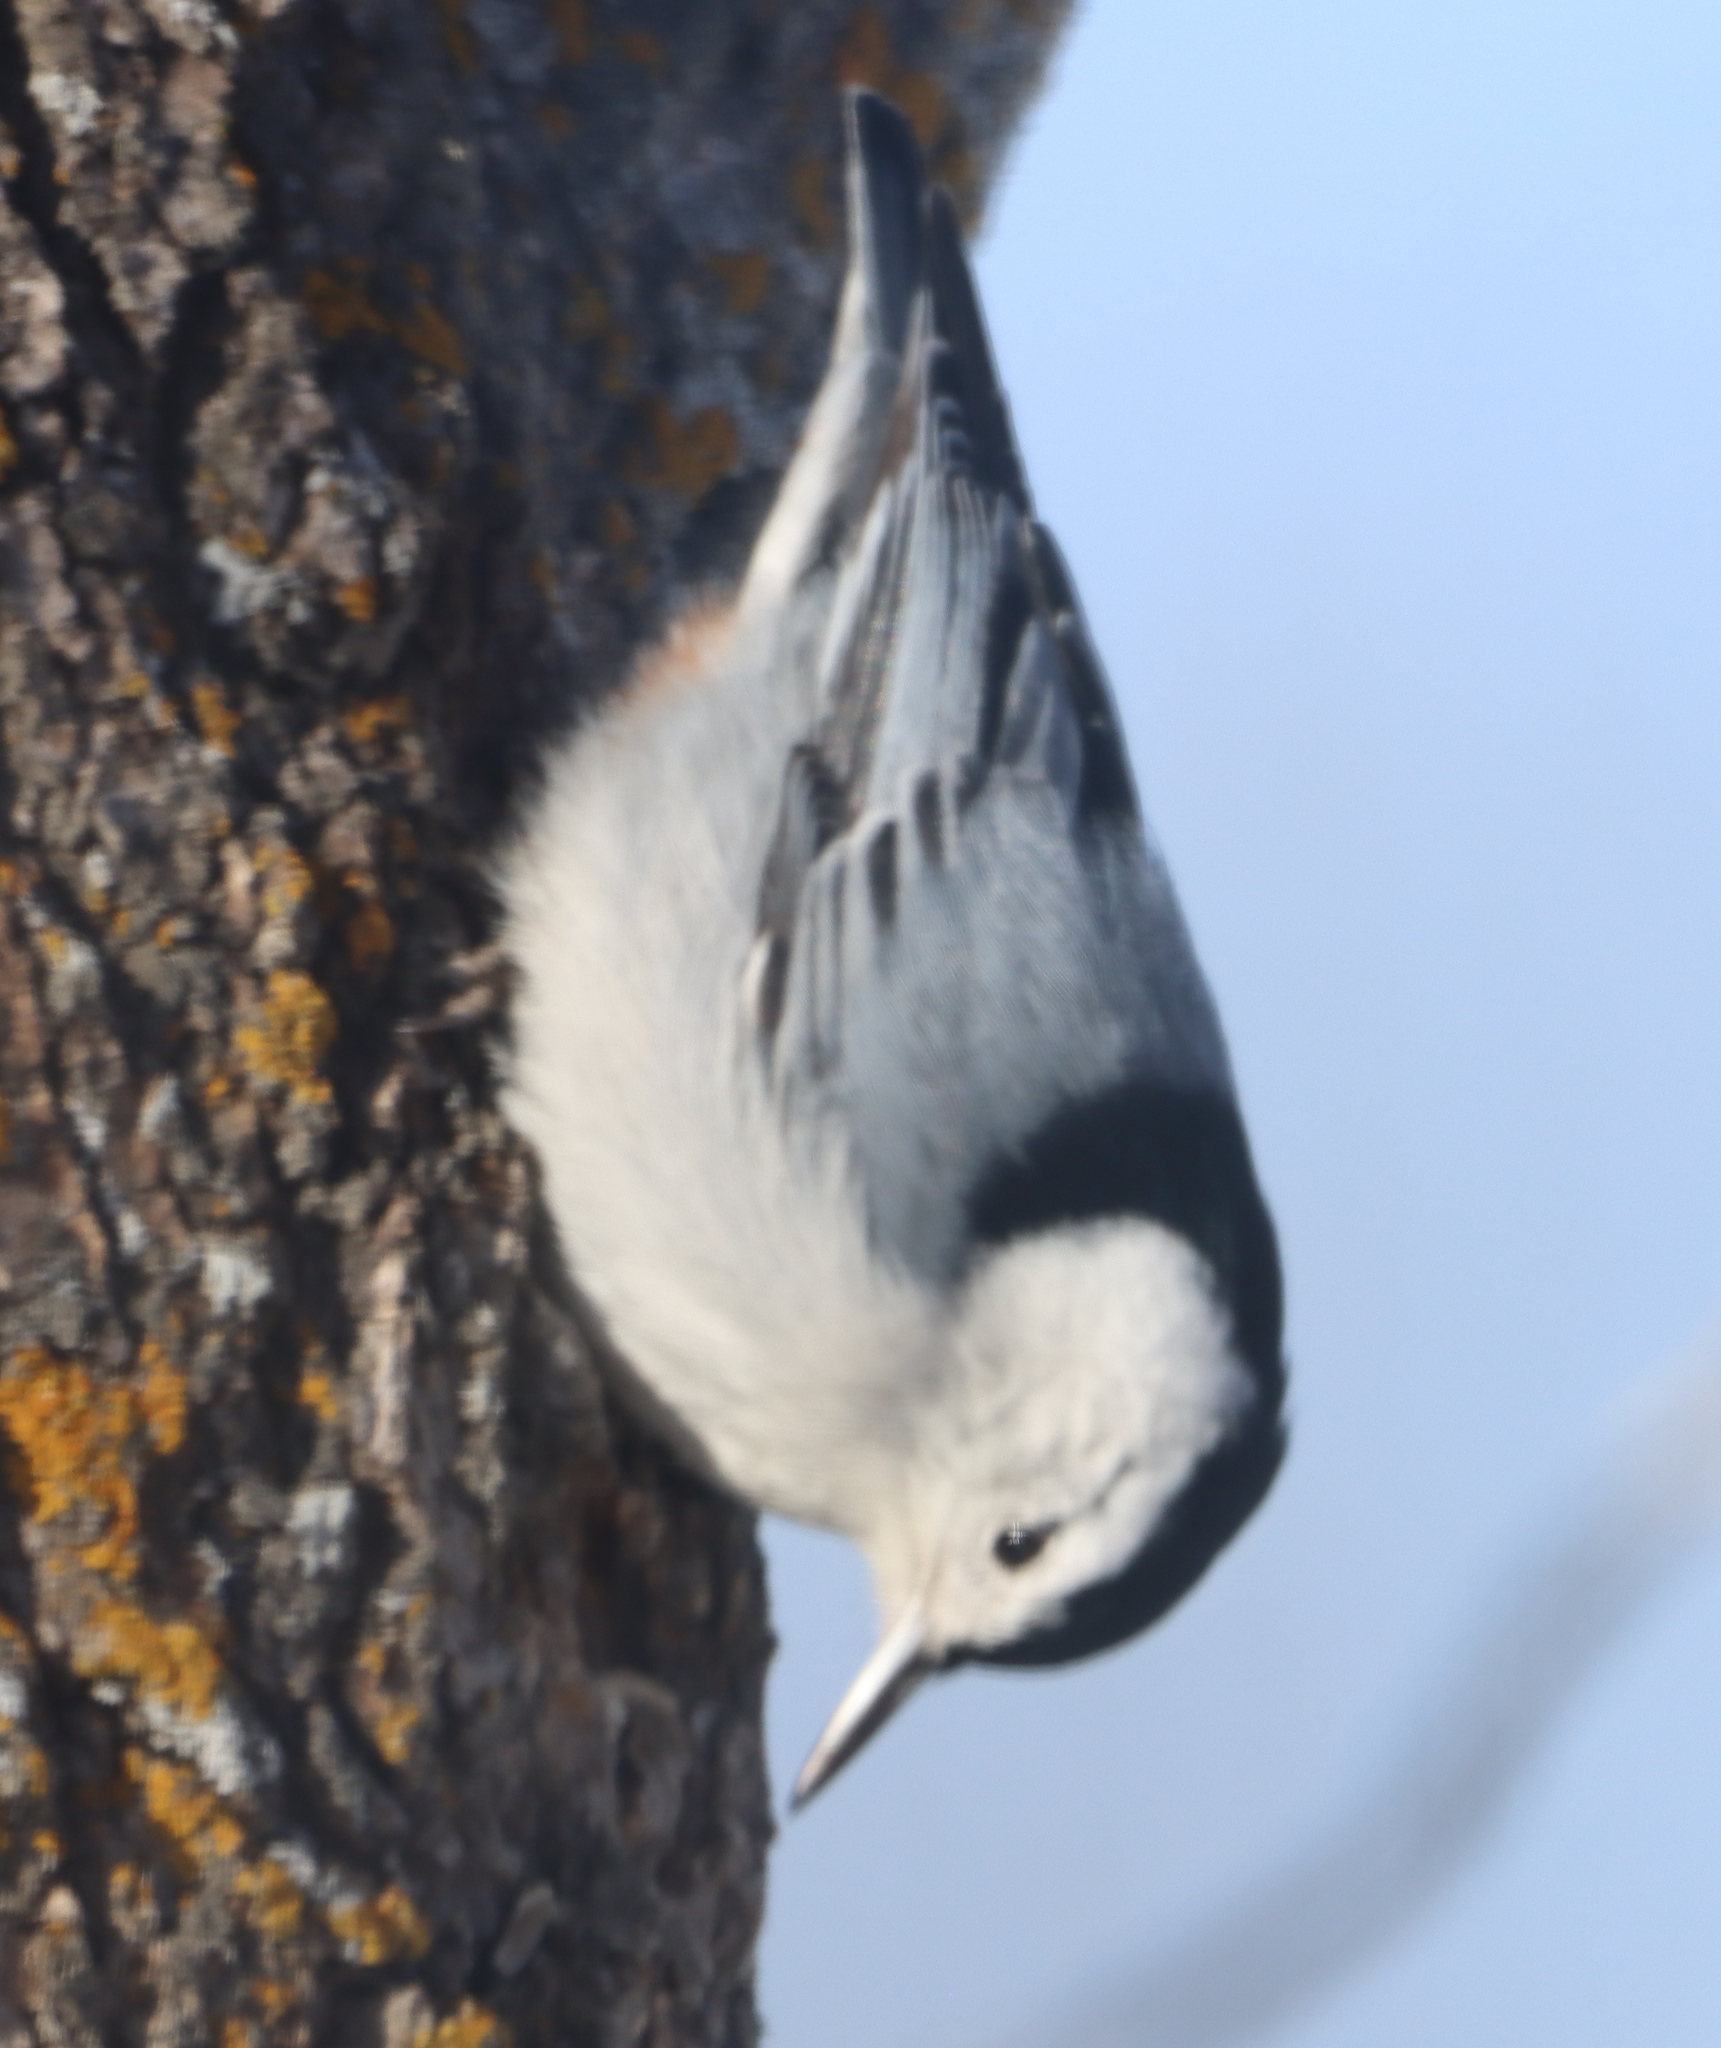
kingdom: Animalia
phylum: Chordata
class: Aves
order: Passeriformes
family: Sittidae
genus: Sitta
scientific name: Sitta carolinensis
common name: White-breasted nuthatch
